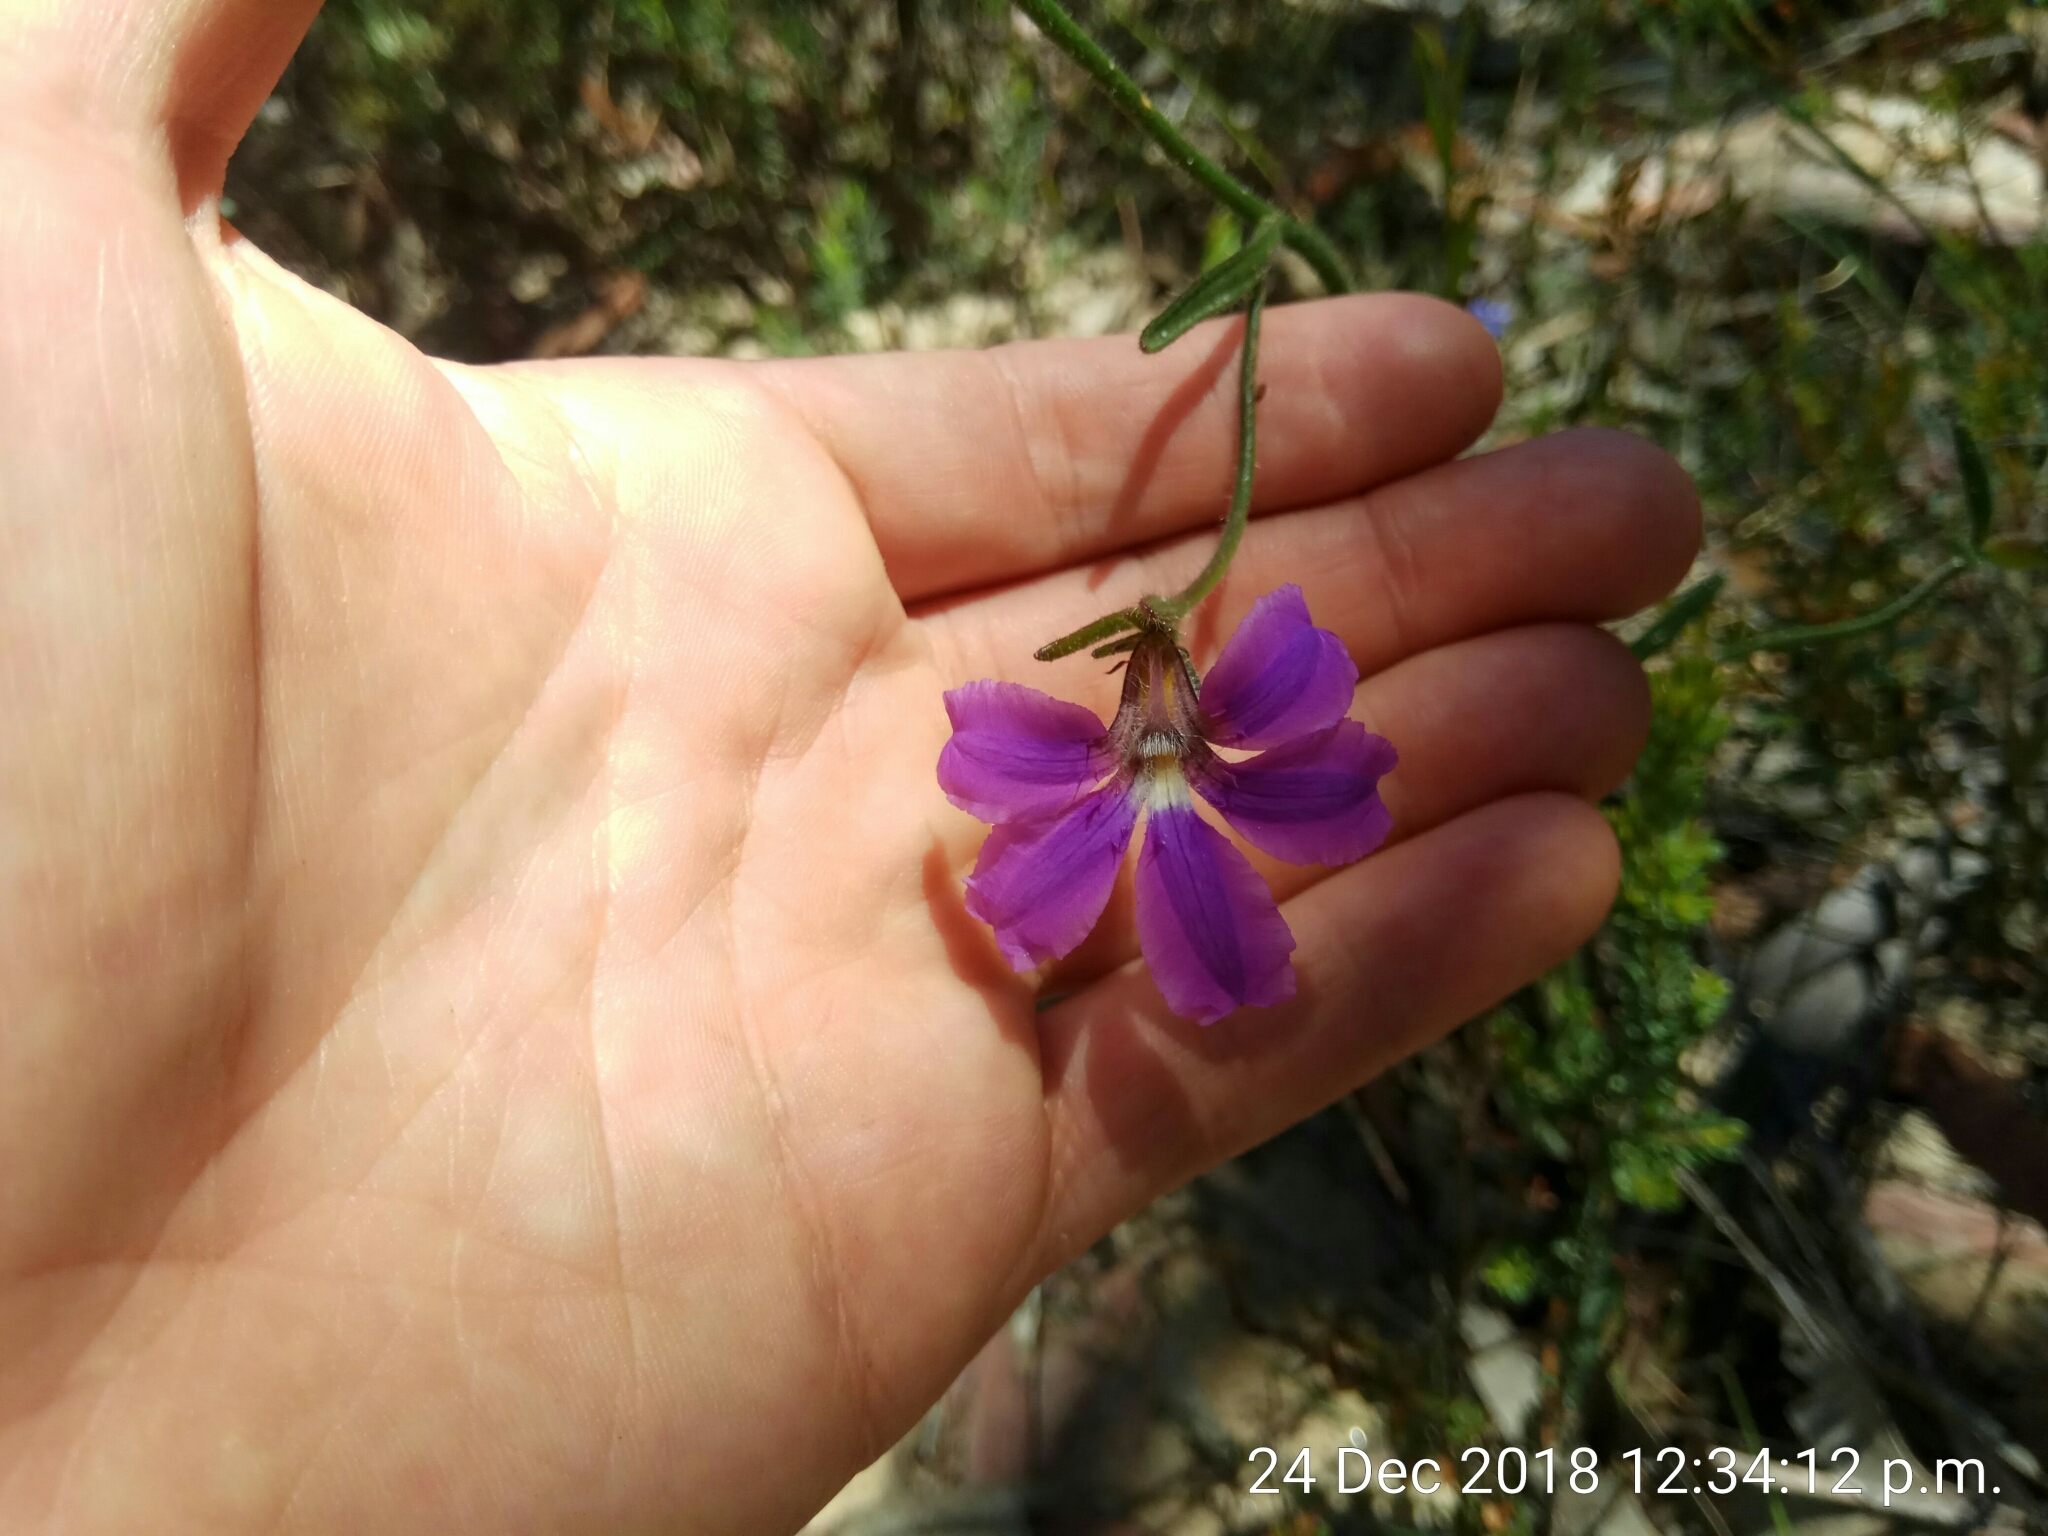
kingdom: Plantae
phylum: Tracheophyta
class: Magnoliopsida
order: Asterales
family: Goodeniaceae
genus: Scaevola
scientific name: Scaevola ramosissima
